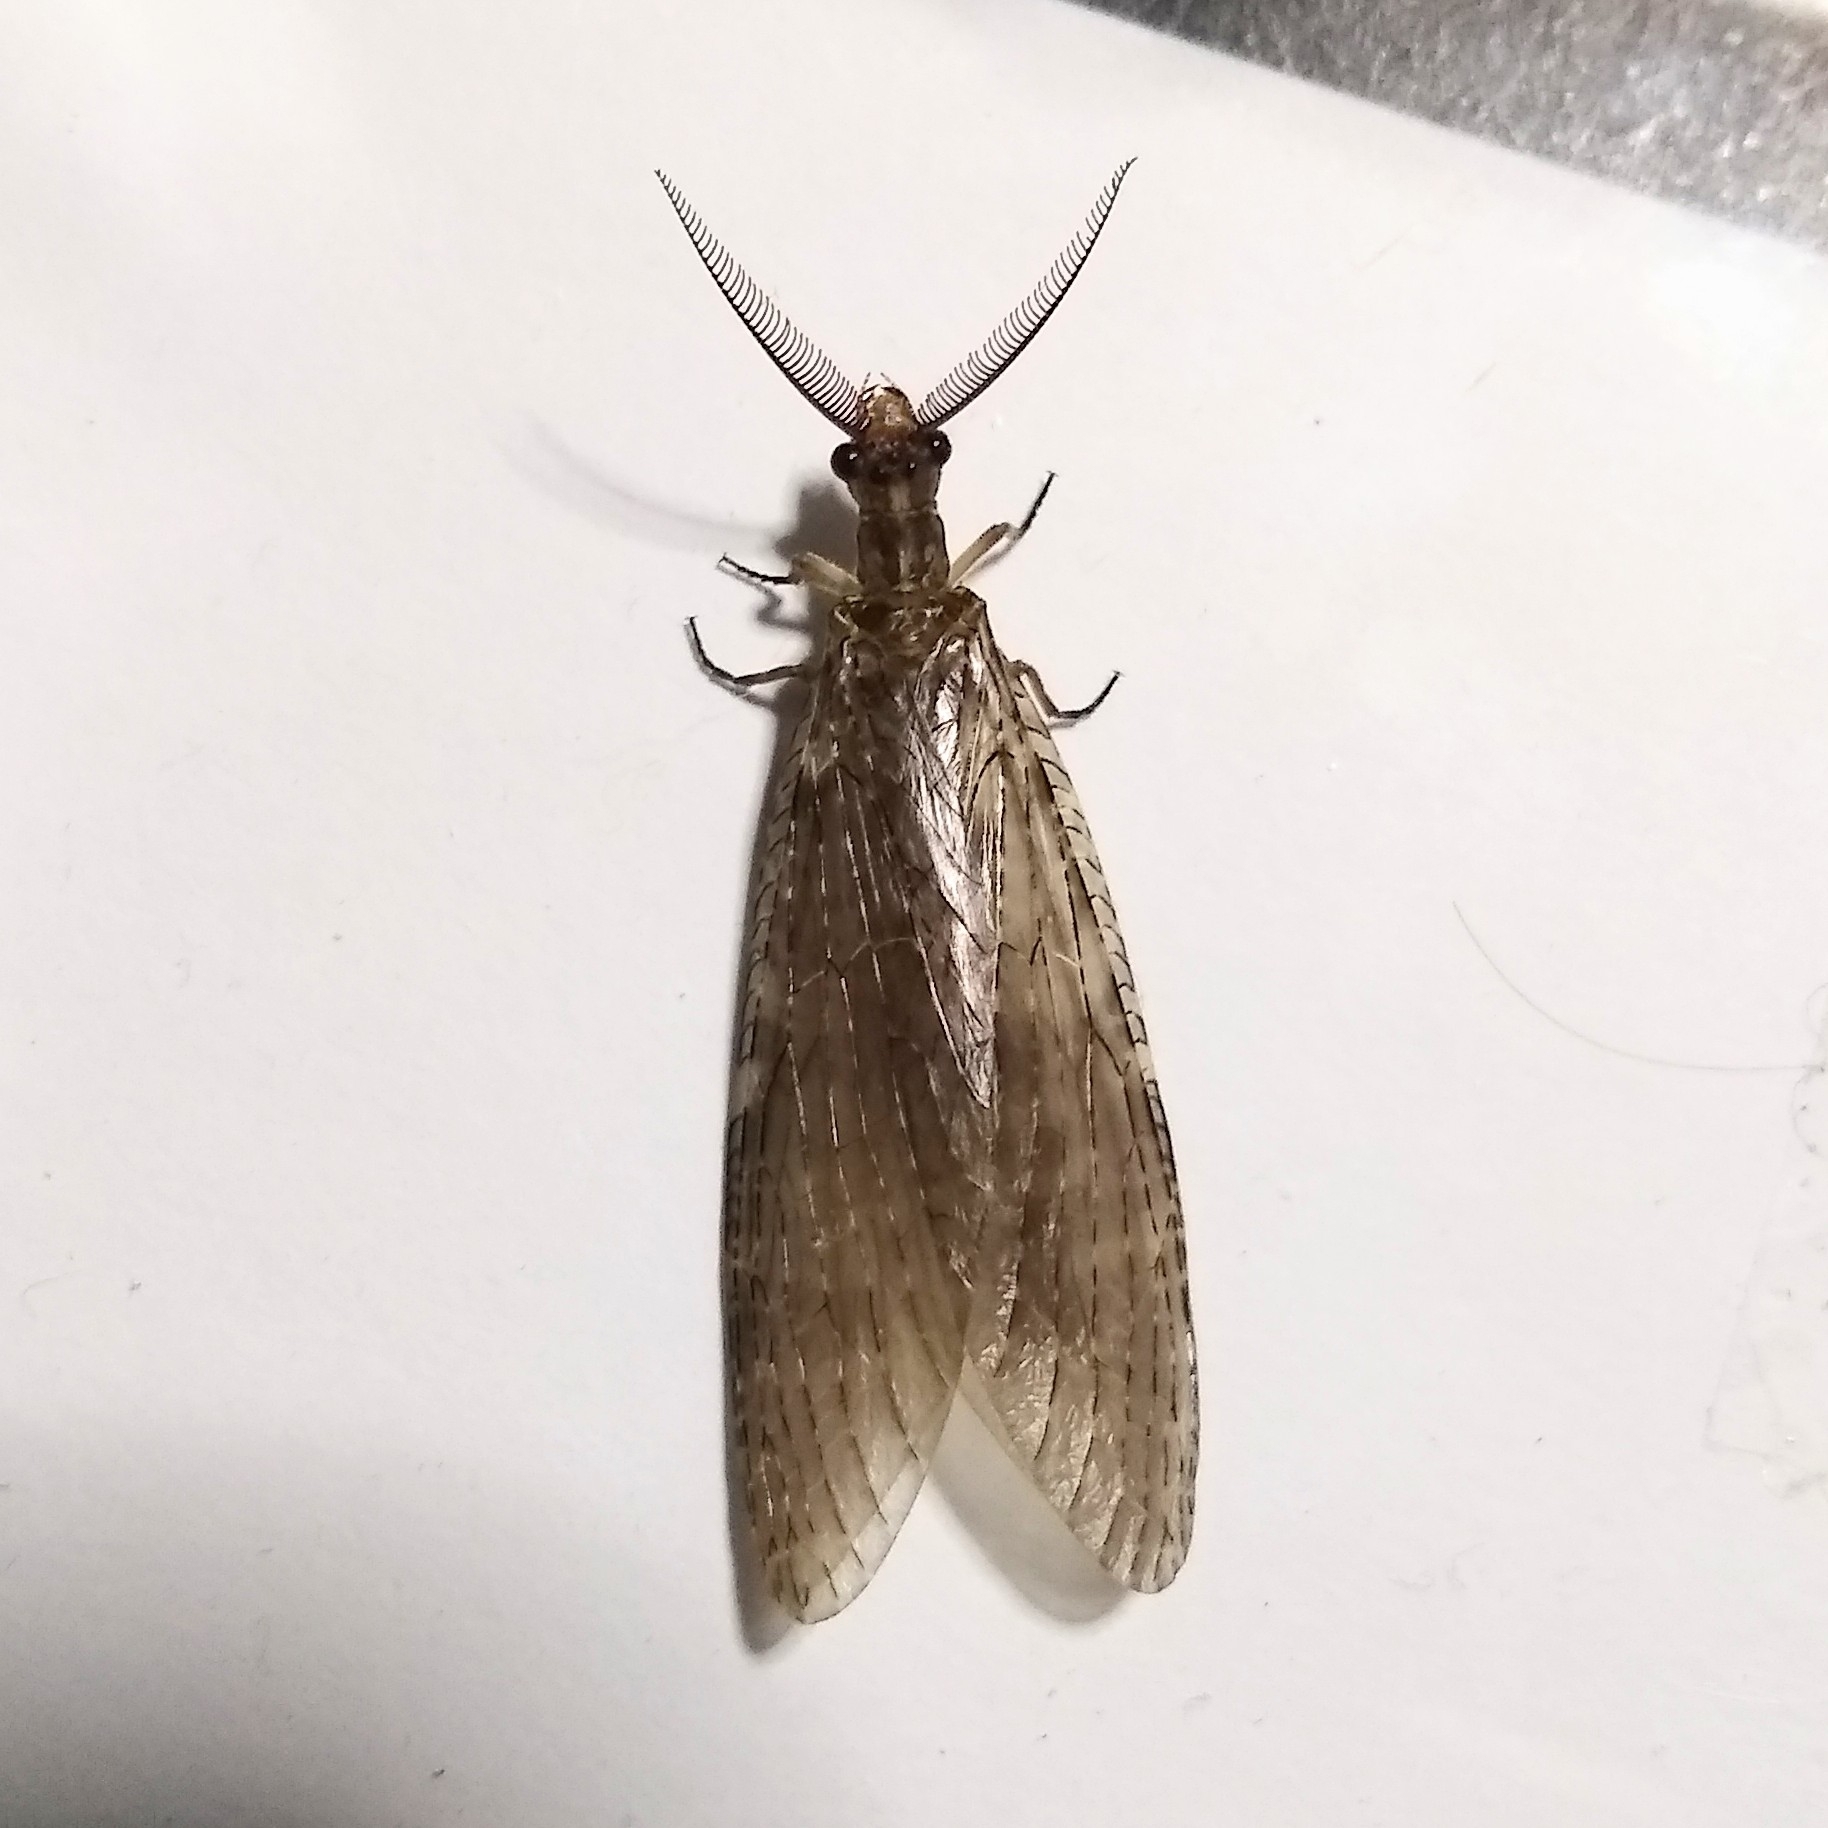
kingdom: Animalia
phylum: Arthropoda
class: Insecta
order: Megaloptera
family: Corydalidae
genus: Chauliodes
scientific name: Chauliodes pectinicornis
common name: Summer fishfly
